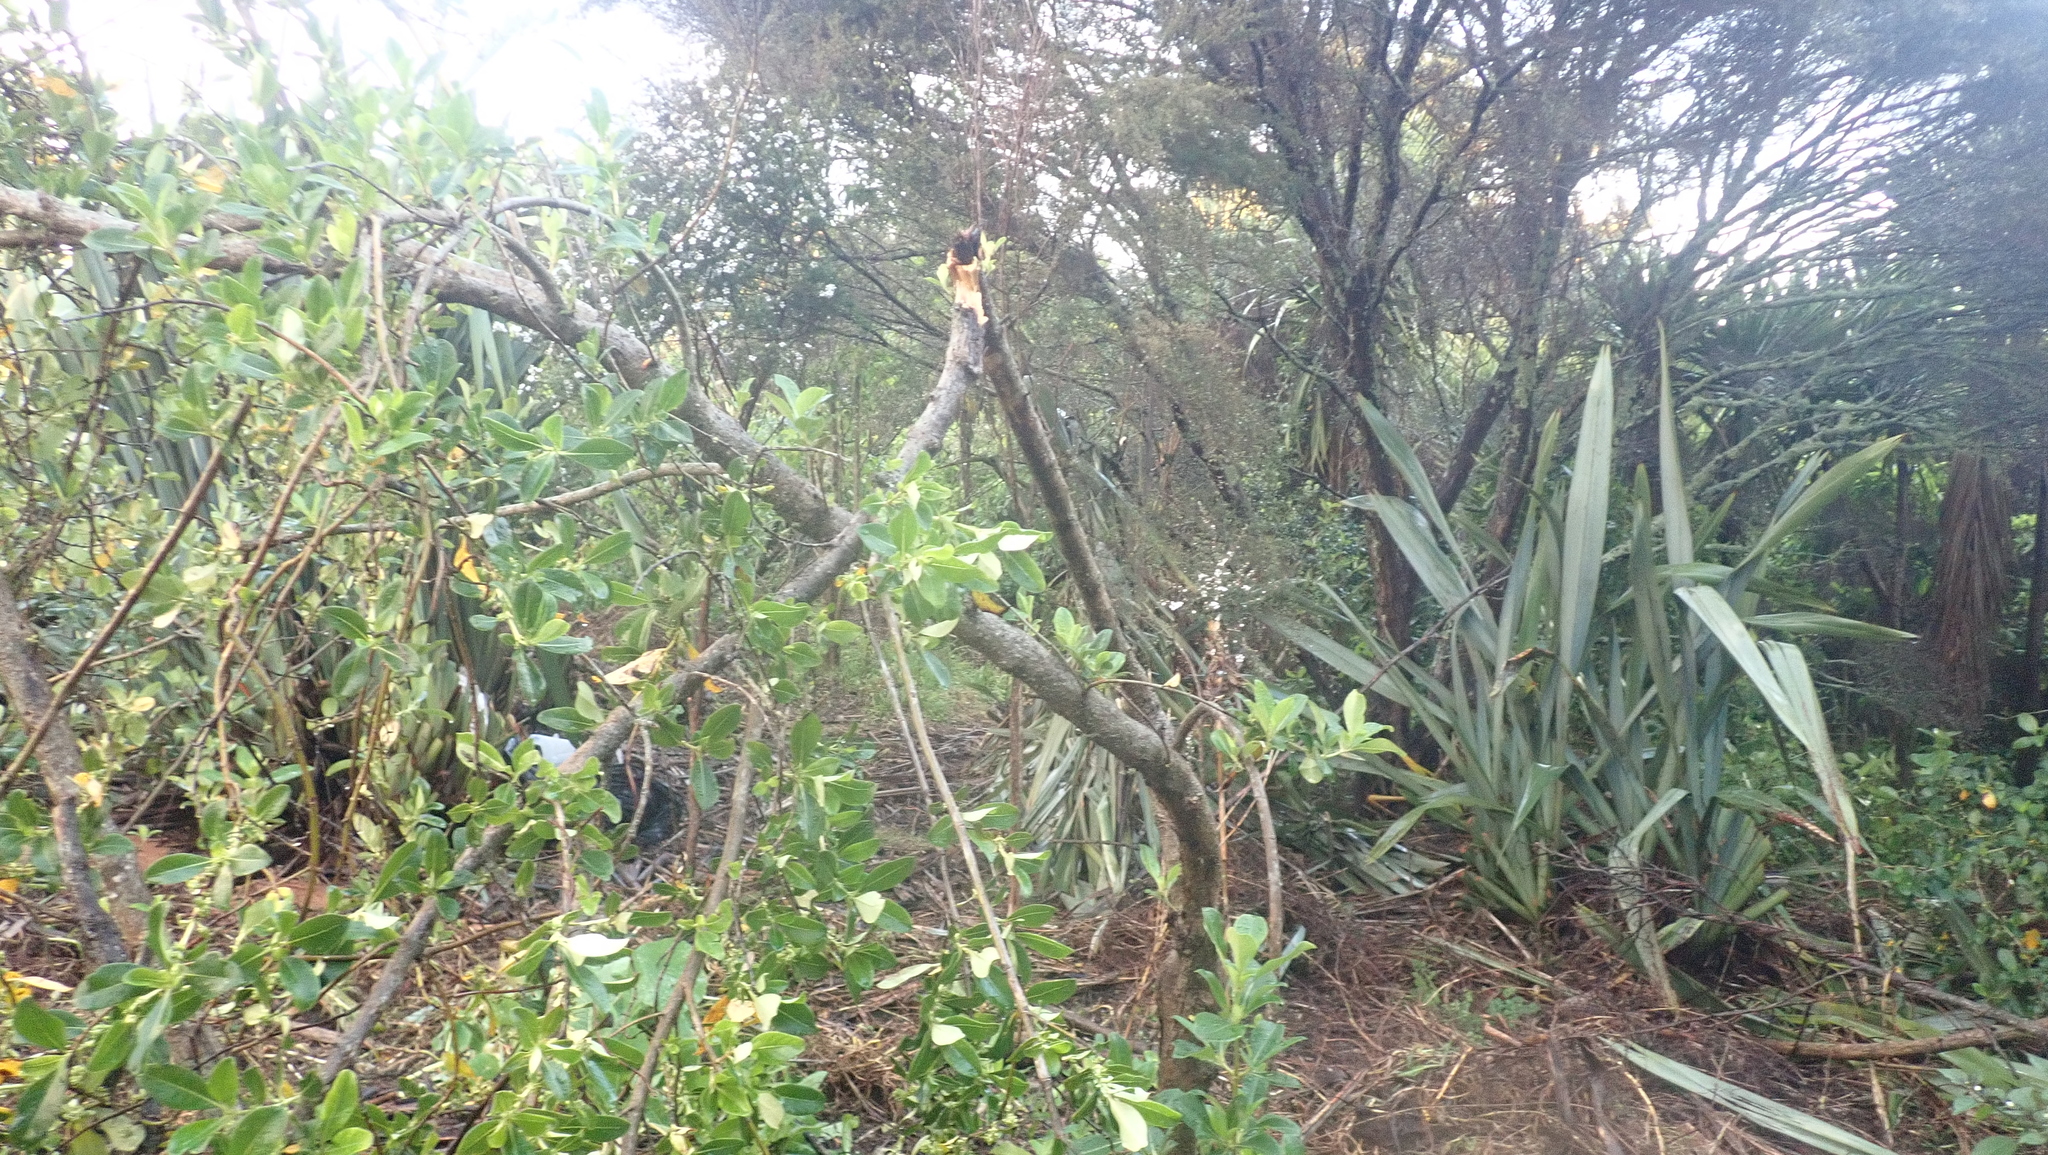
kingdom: Plantae
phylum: Tracheophyta
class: Magnoliopsida
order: Gentianales
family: Rubiaceae
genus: Coprosma
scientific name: Coprosma robusta
